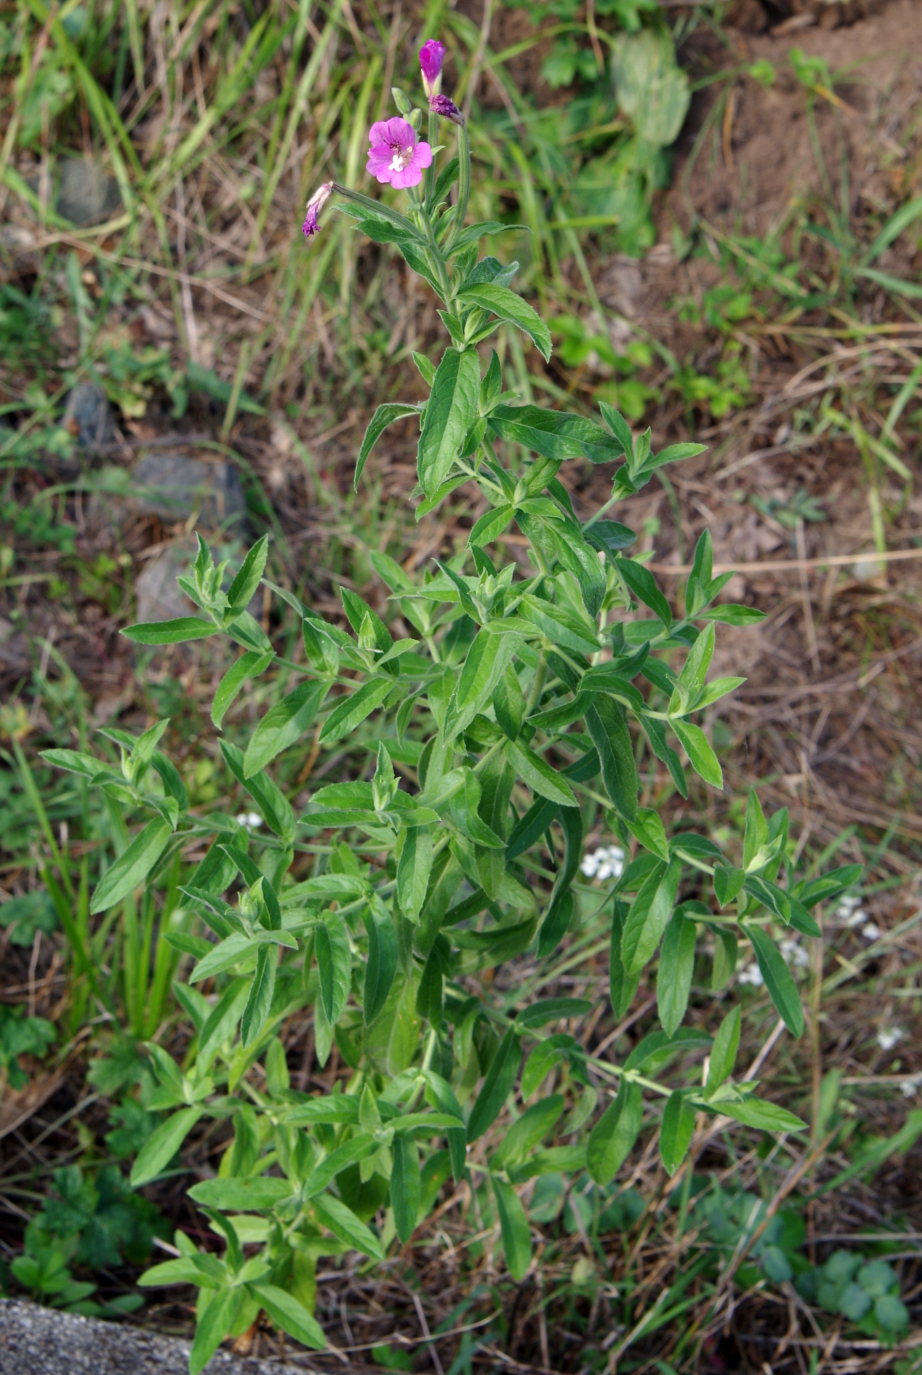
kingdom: Plantae
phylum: Tracheophyta
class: Magnoliopsida
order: Myrtales
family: Onagraceae
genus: Epilobium
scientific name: Epilobium hirsutum
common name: Great willowherb
